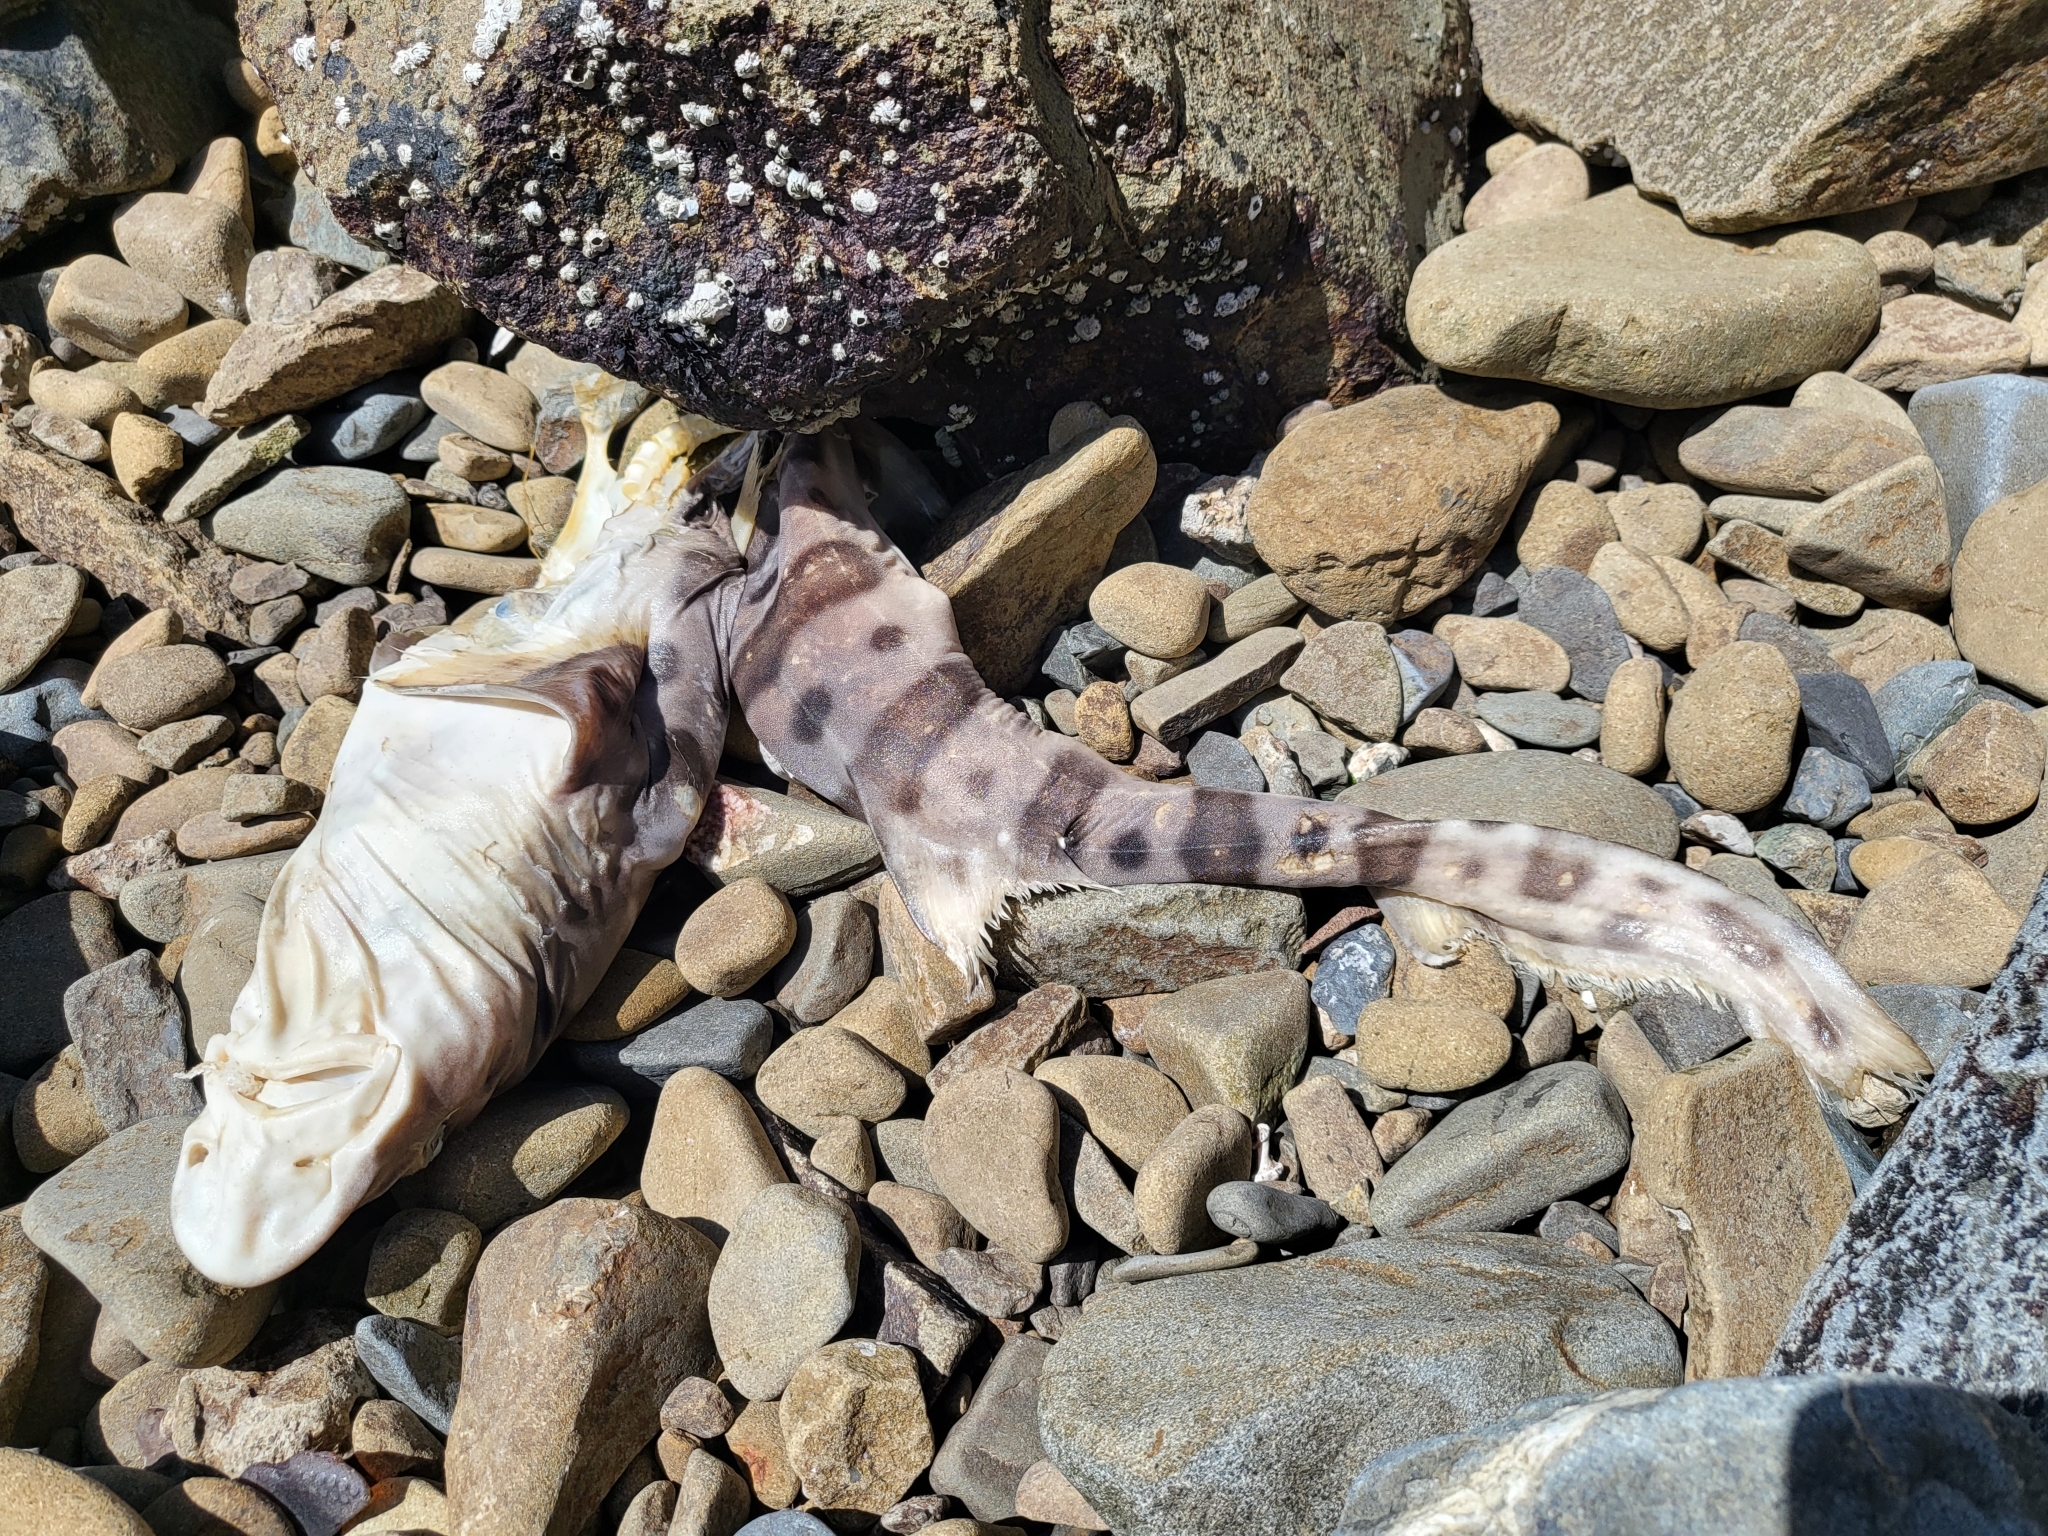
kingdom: Animalia
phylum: Chordata
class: Elasmobranchii
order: Carcharhiniformes
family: Triakidae
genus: Triakis
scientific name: Triakis semifasciata
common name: Leopard shark
